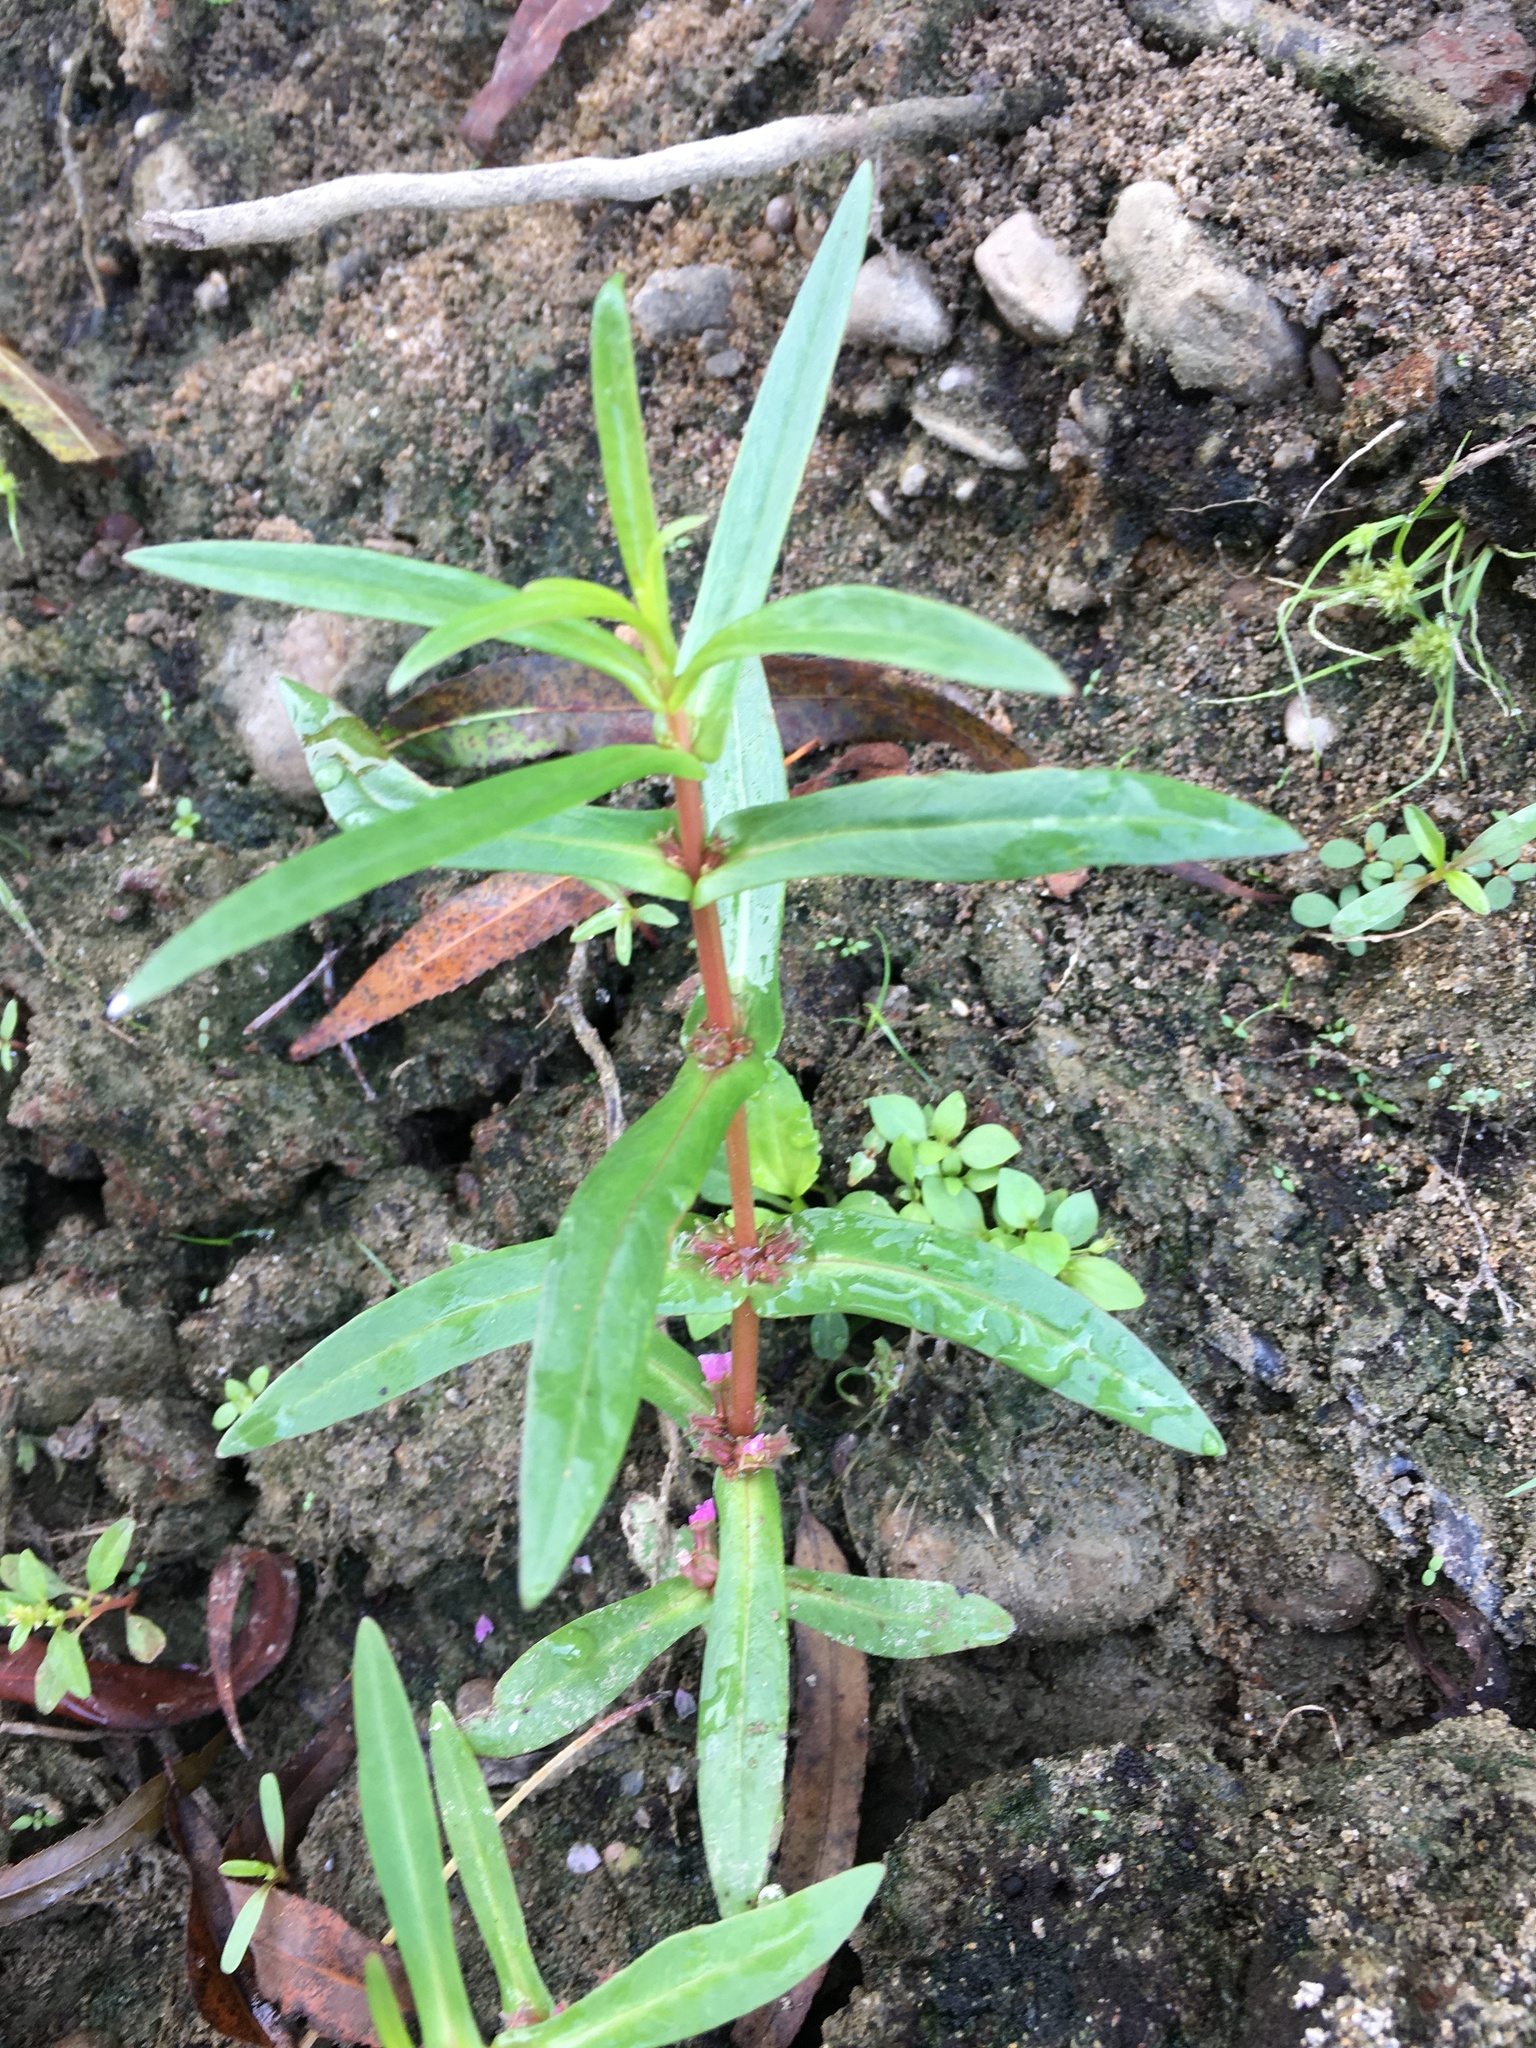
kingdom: Plantae
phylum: Tracheophyta
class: Magnoliopsida
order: Myrtales
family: Lythraceae
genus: Ammannia
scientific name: Ammannia coccinea
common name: Valley redstem
